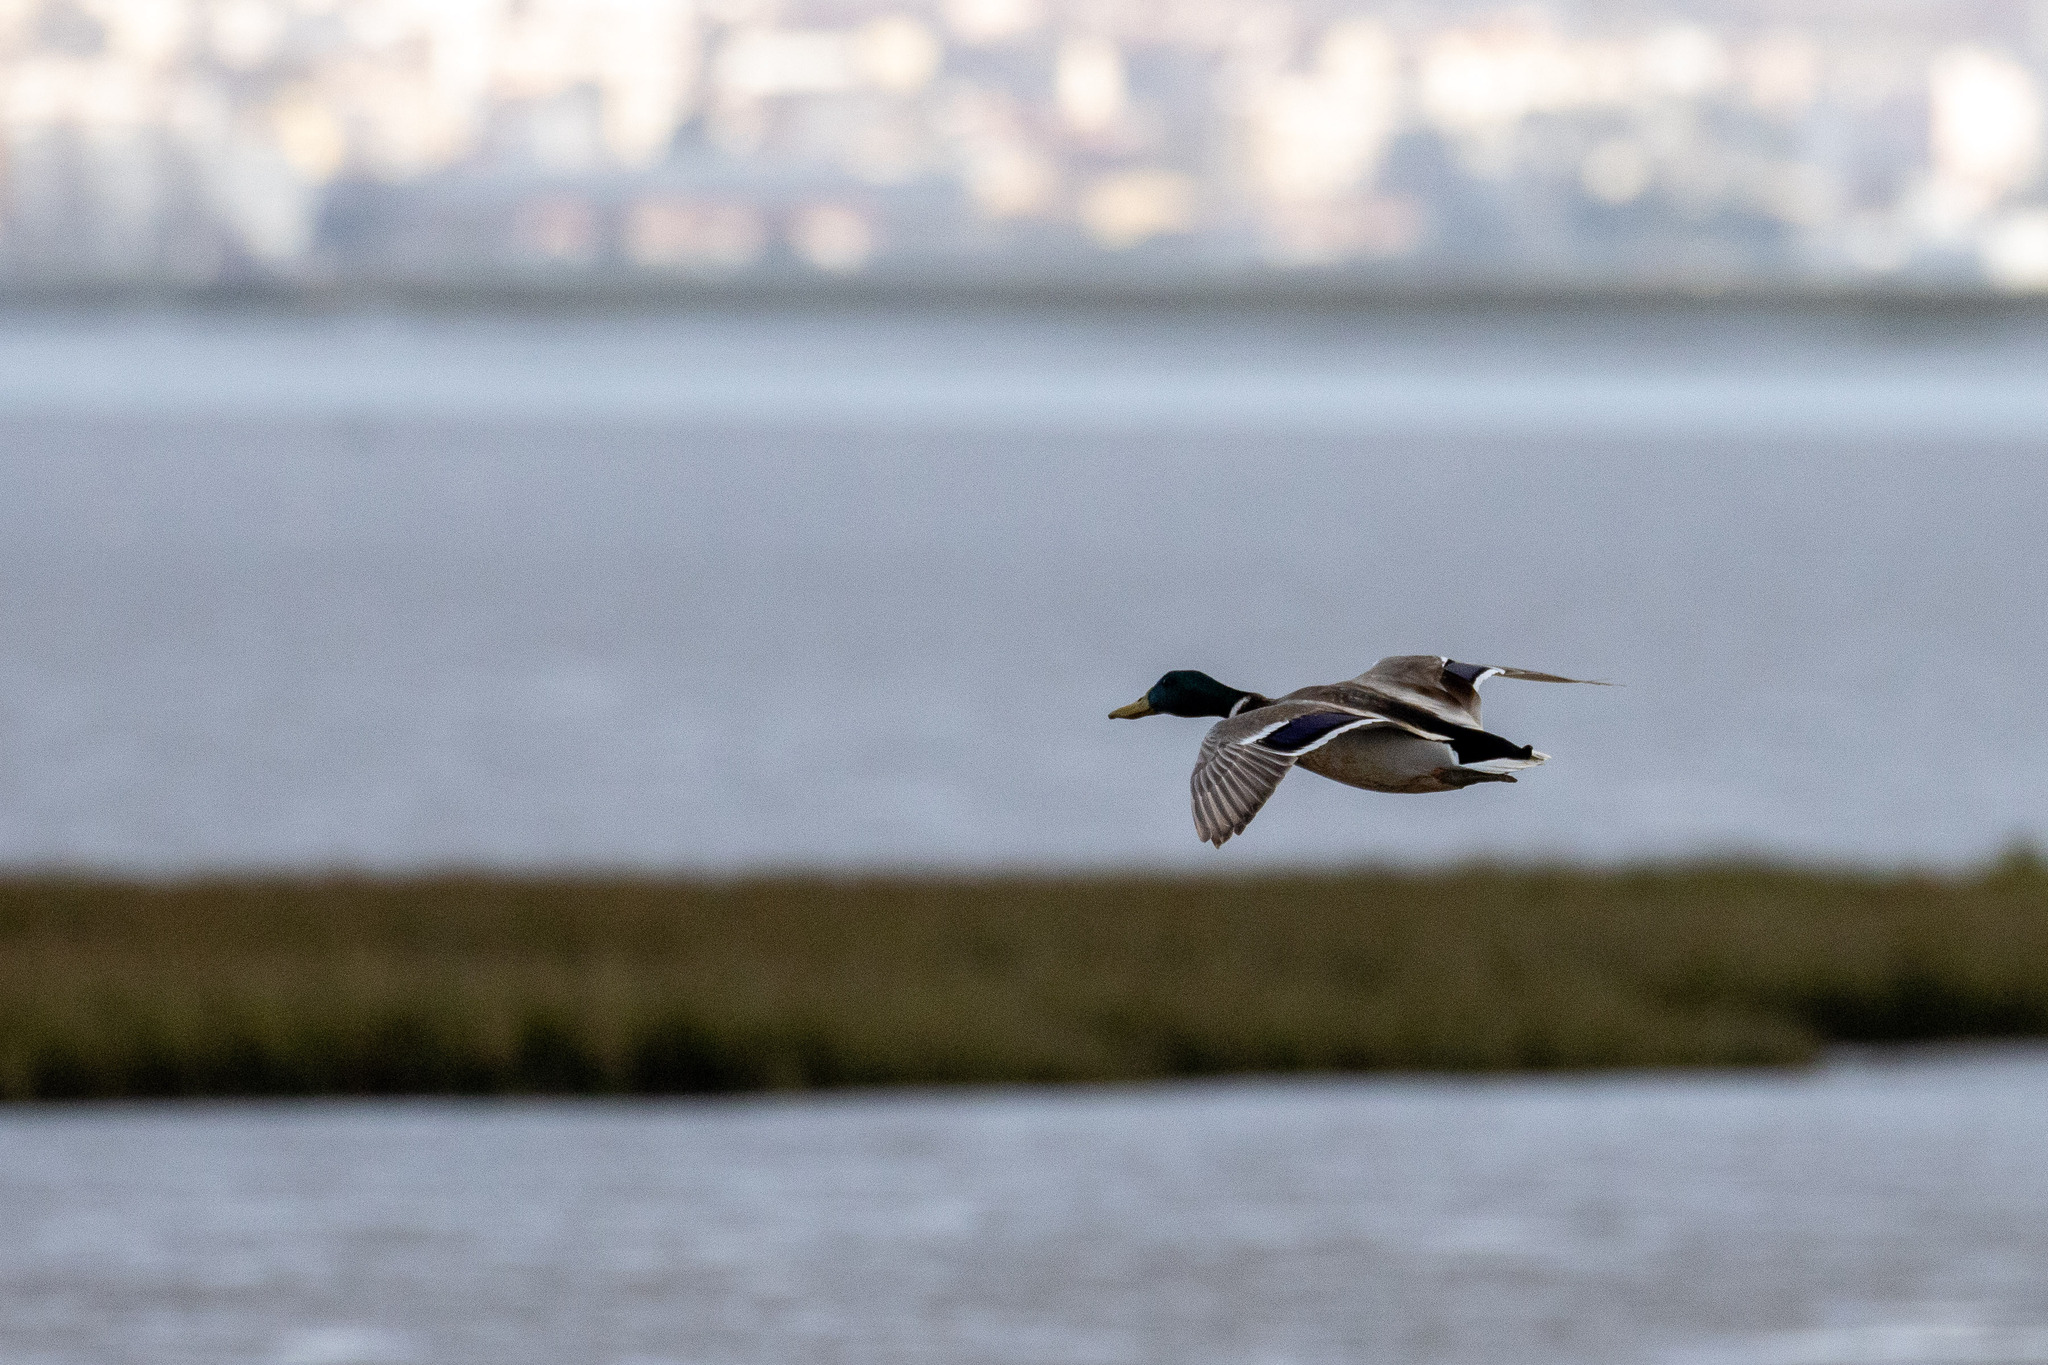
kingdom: Animalia
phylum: Chordata
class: Aves
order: Anseriformes
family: Anatidae
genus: Anas
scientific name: Anas platyrhynchos
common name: Mallard
